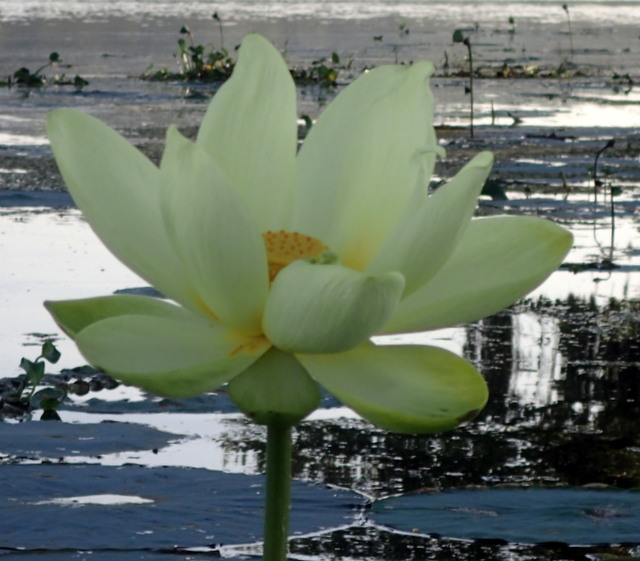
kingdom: Plantae
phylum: Tracheophyta
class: Magnoliopsida
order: Proteales
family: Nelumbonaceae
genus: Nelumbo
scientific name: Nelumbo lutea
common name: American lotus
